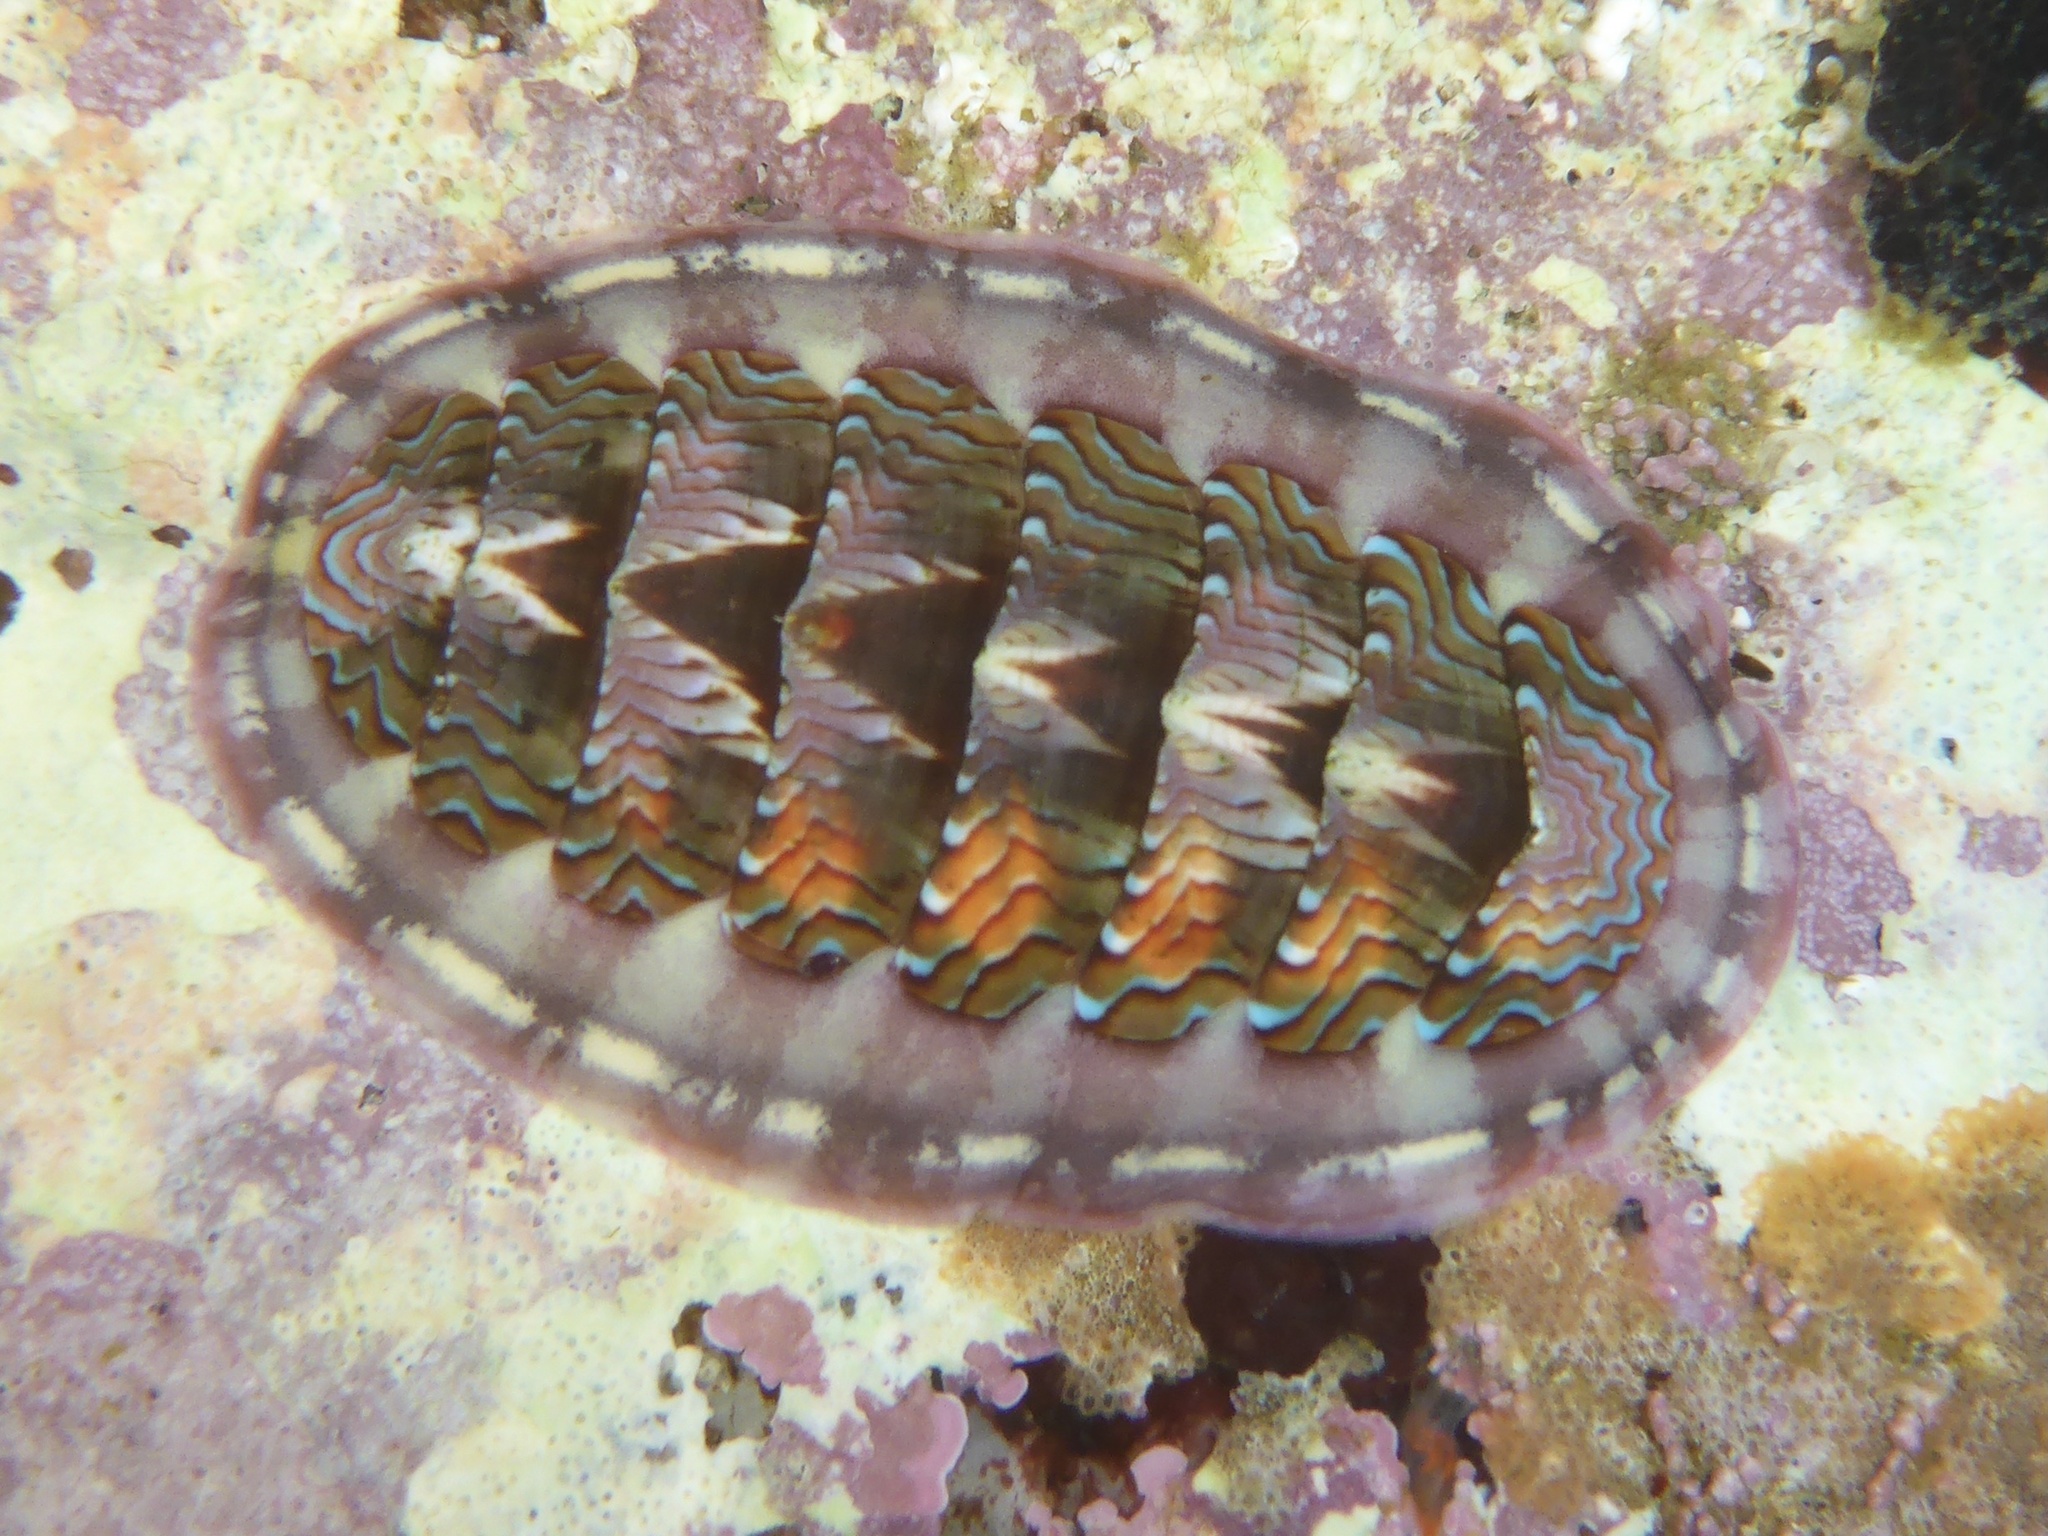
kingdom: Animalia
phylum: Mollusca
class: Polyplacophora
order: Chitonida
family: Tonicellidae
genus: Tonicella
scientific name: Tonicella lokii
